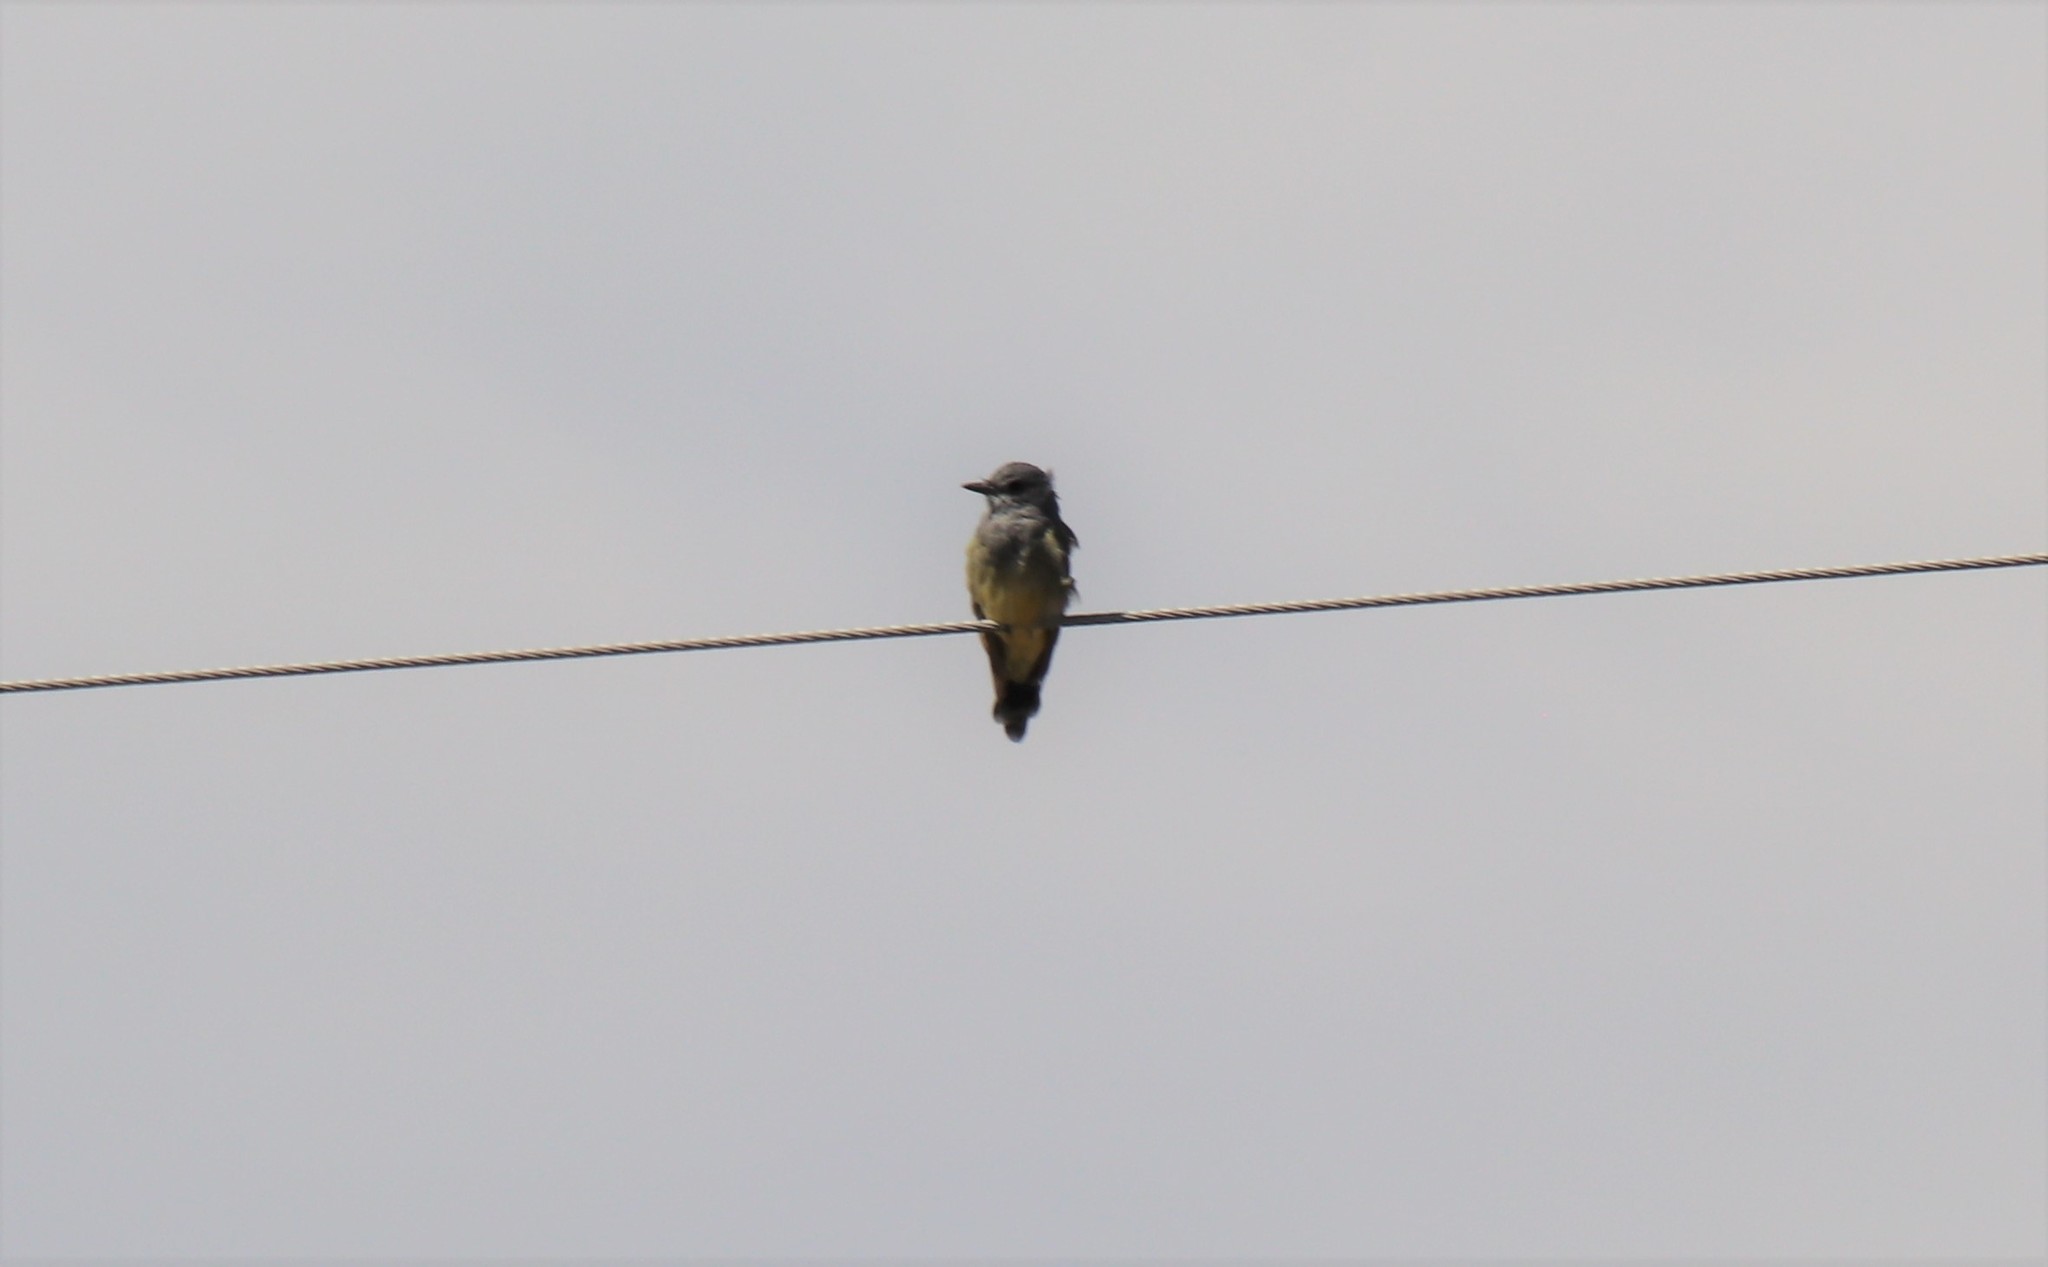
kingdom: Animalia
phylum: Chordata
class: Aves
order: Passeriformes
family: Tyrannidae
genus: Tyrannus
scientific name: Tyrannus vociferans
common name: Cassin's kingbird
